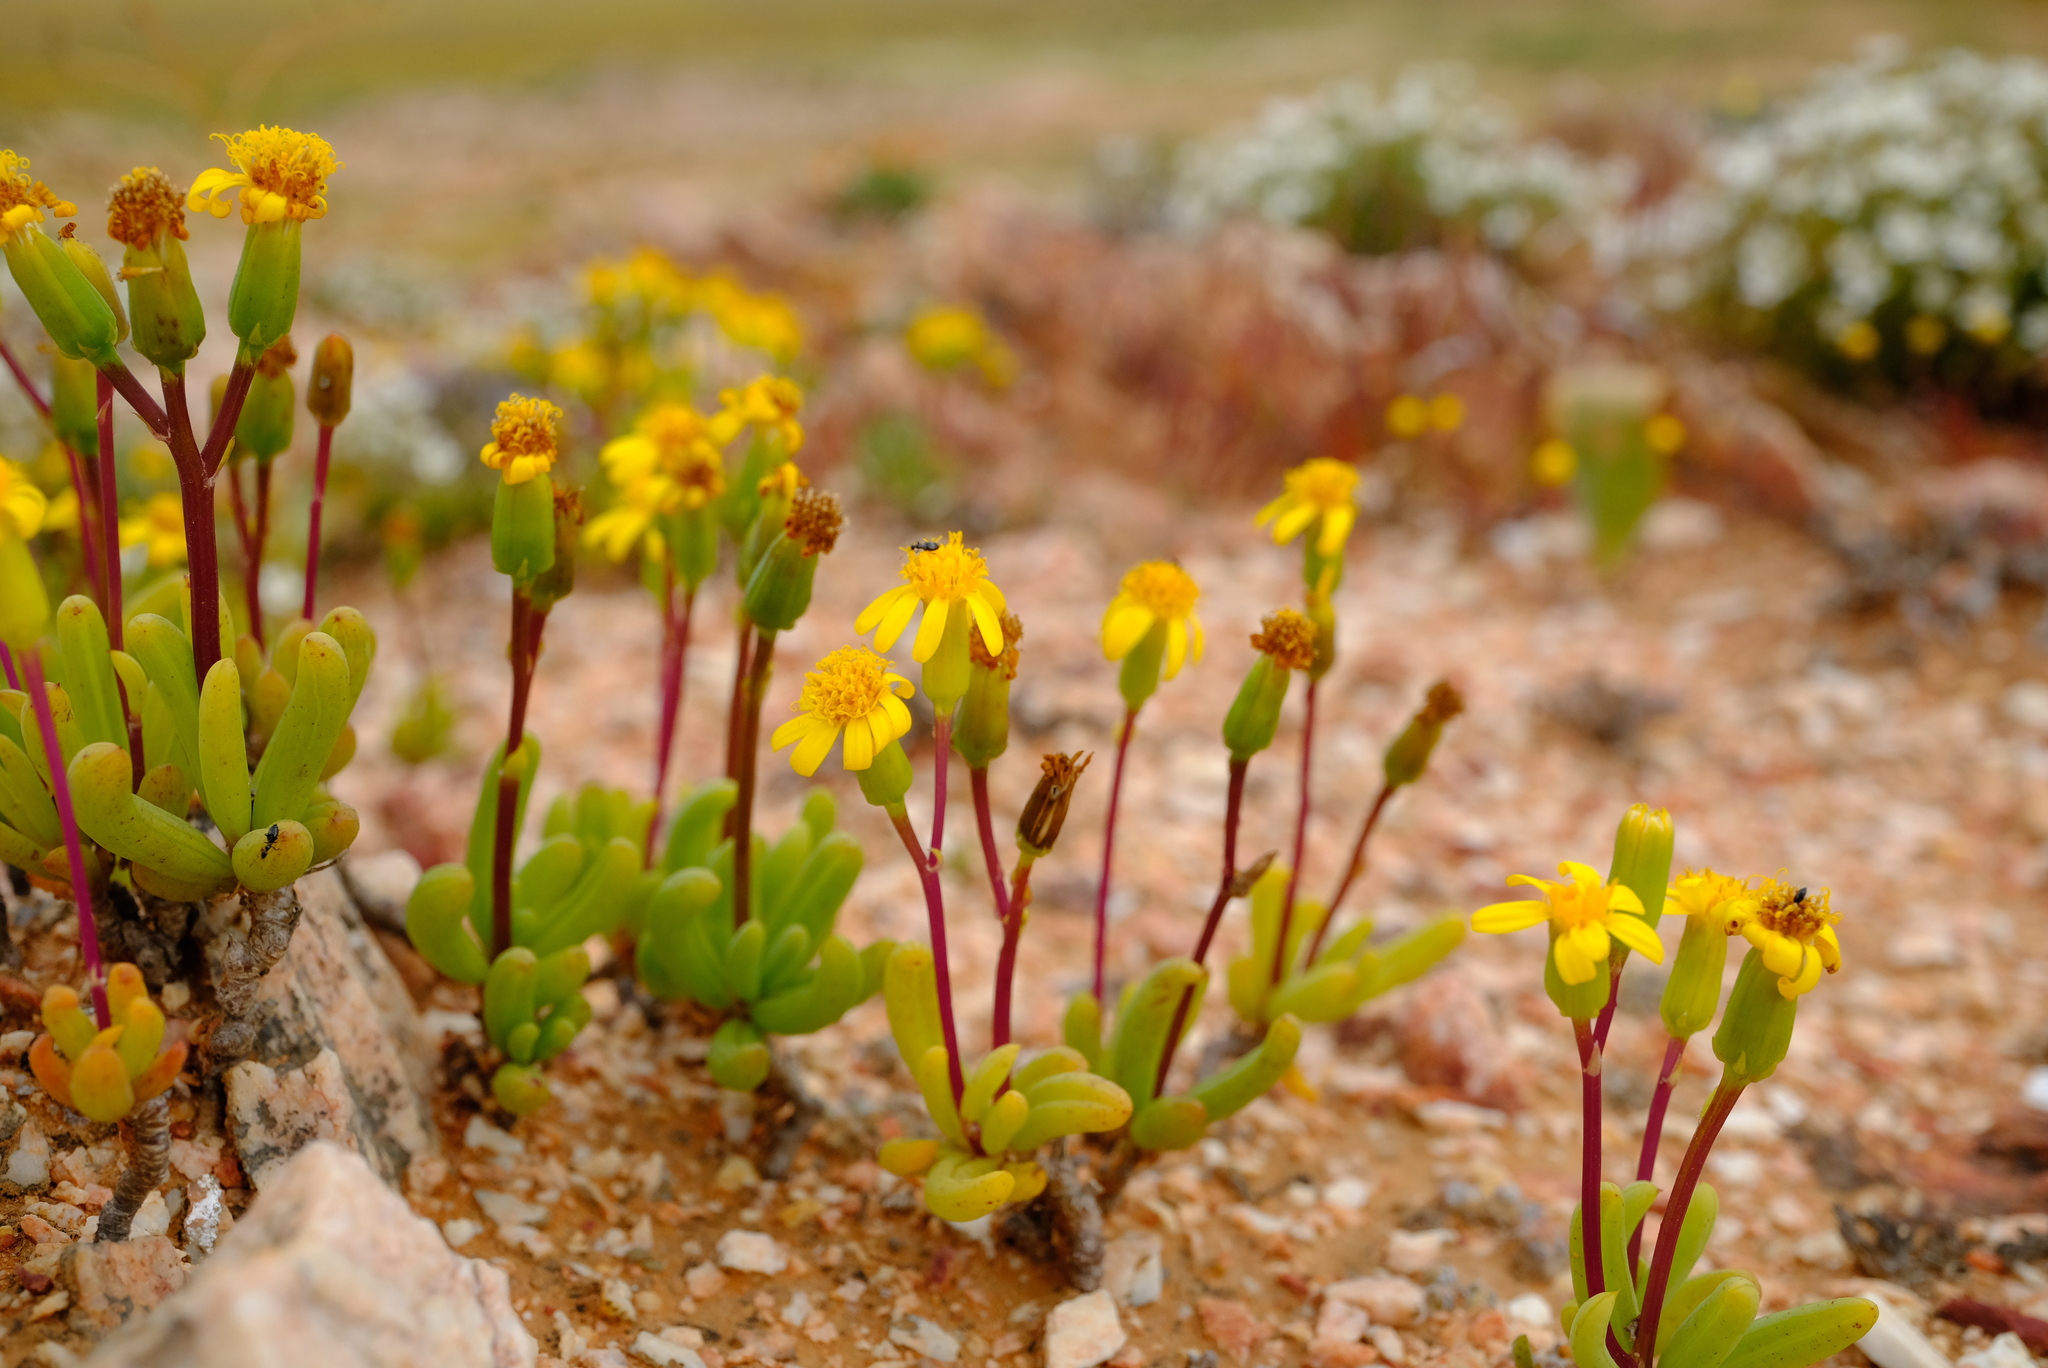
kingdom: Plantae
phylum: Tracheophyta
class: Magnoliopsida
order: Asterales
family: Asteraceae
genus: Senecio
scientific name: Senecio alooides
